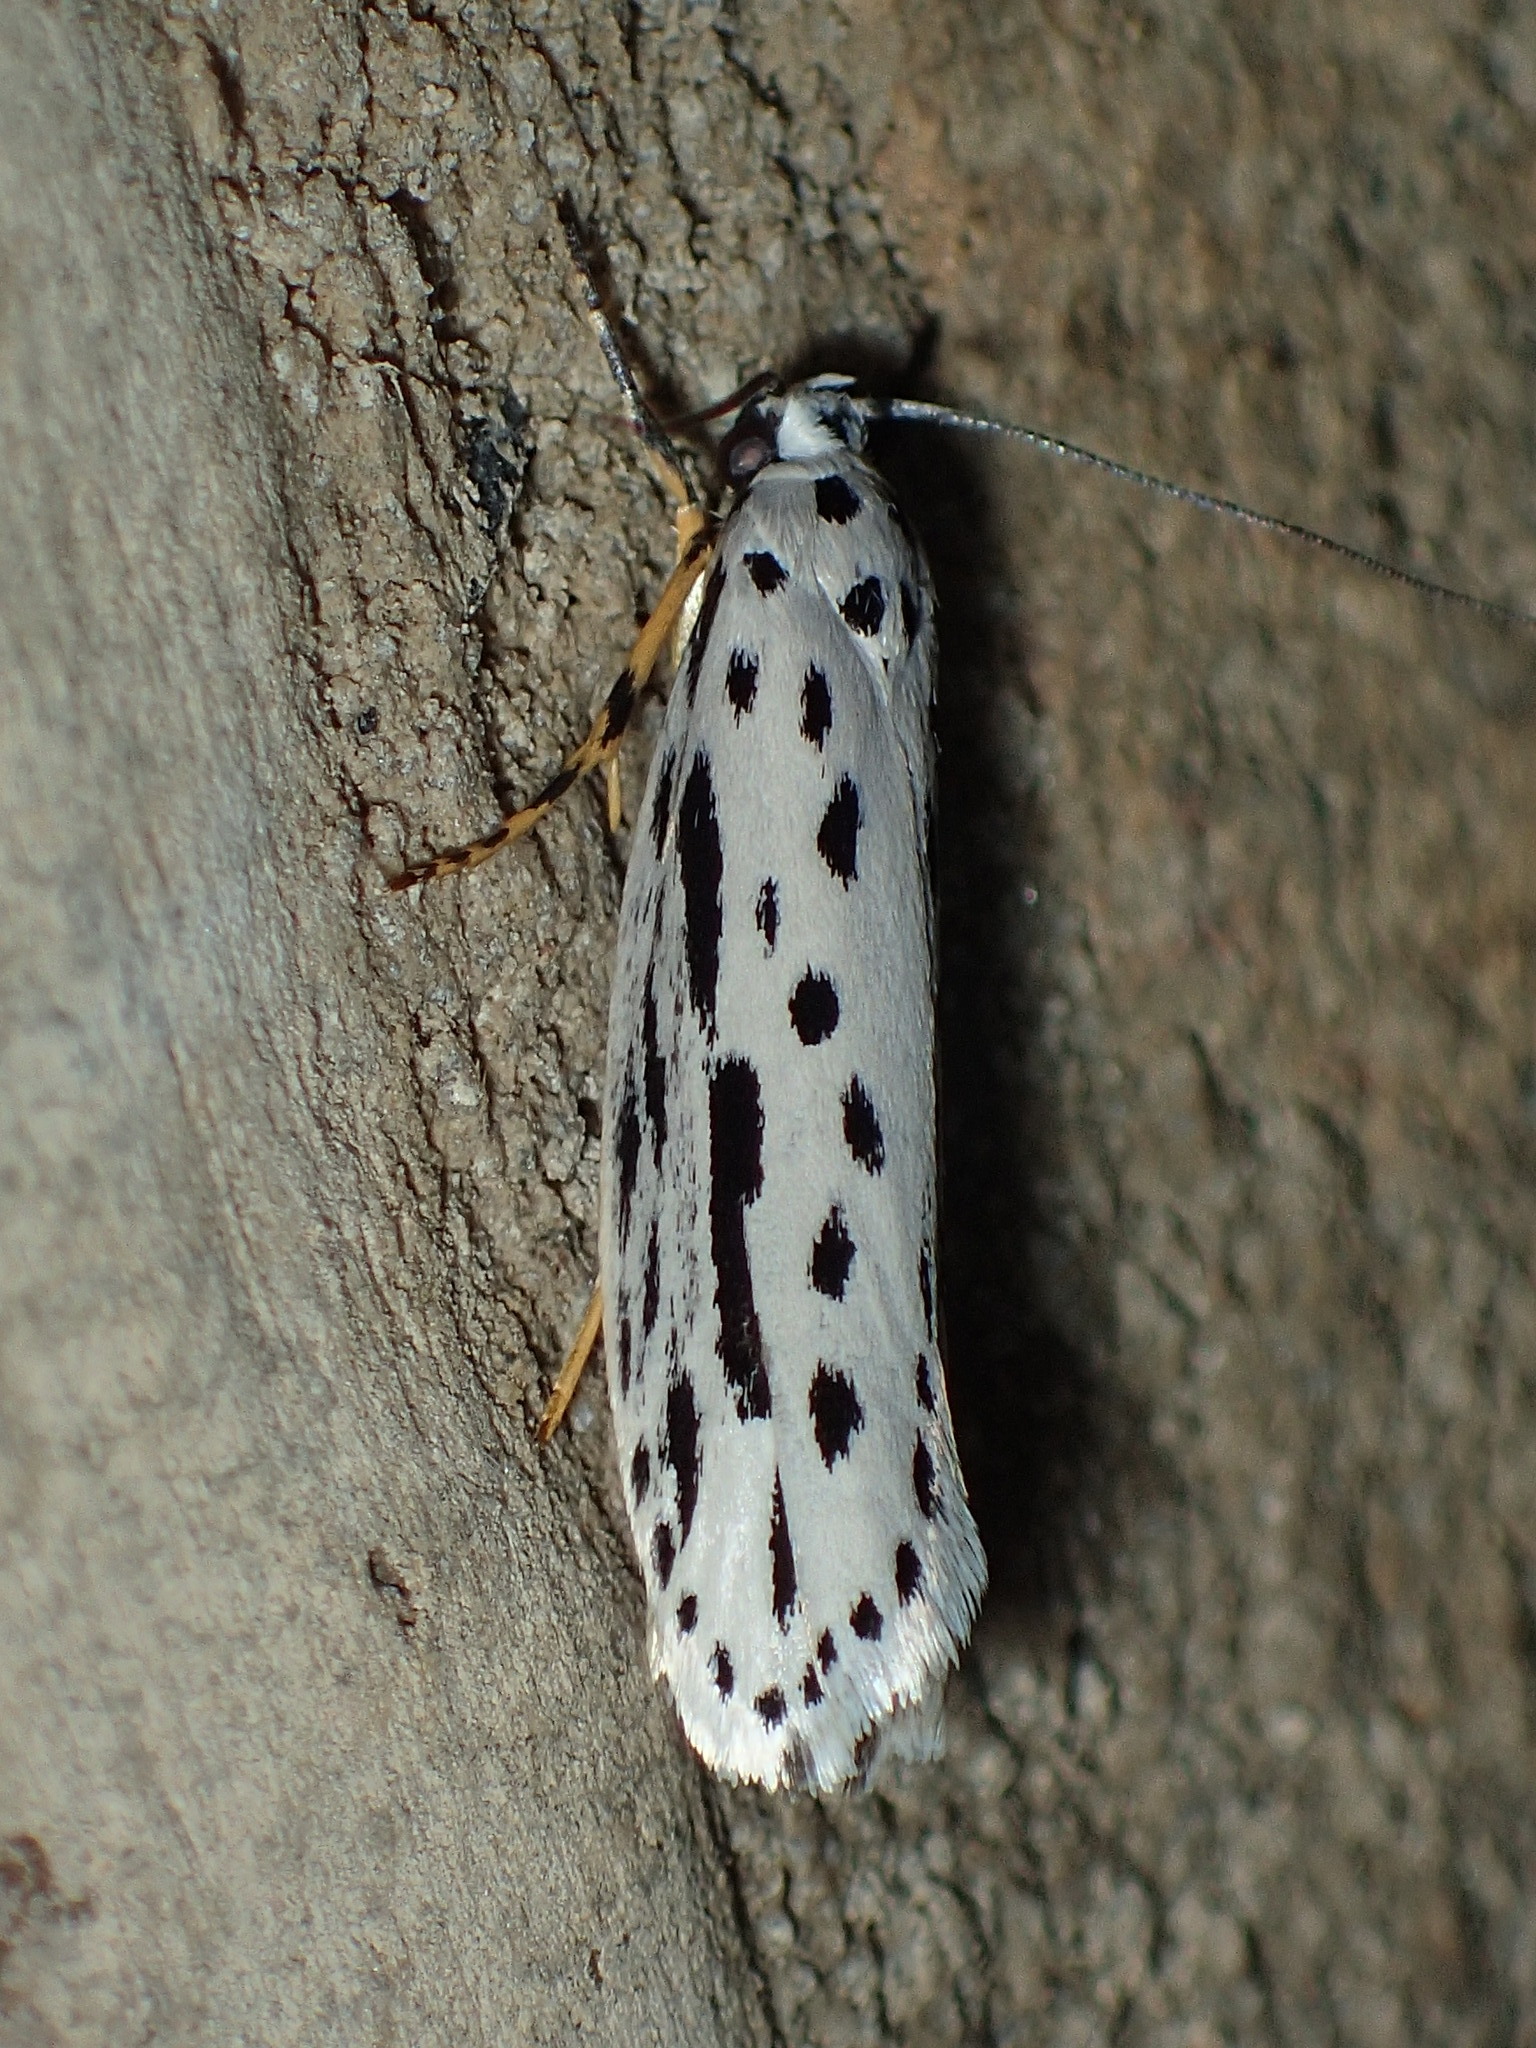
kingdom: Animalia
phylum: Arthropoda
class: Insecta
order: Lepidoptera
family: Ethmiidae
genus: Ethmia
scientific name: Ethmia zelleriella
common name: Zeller's ethmia
